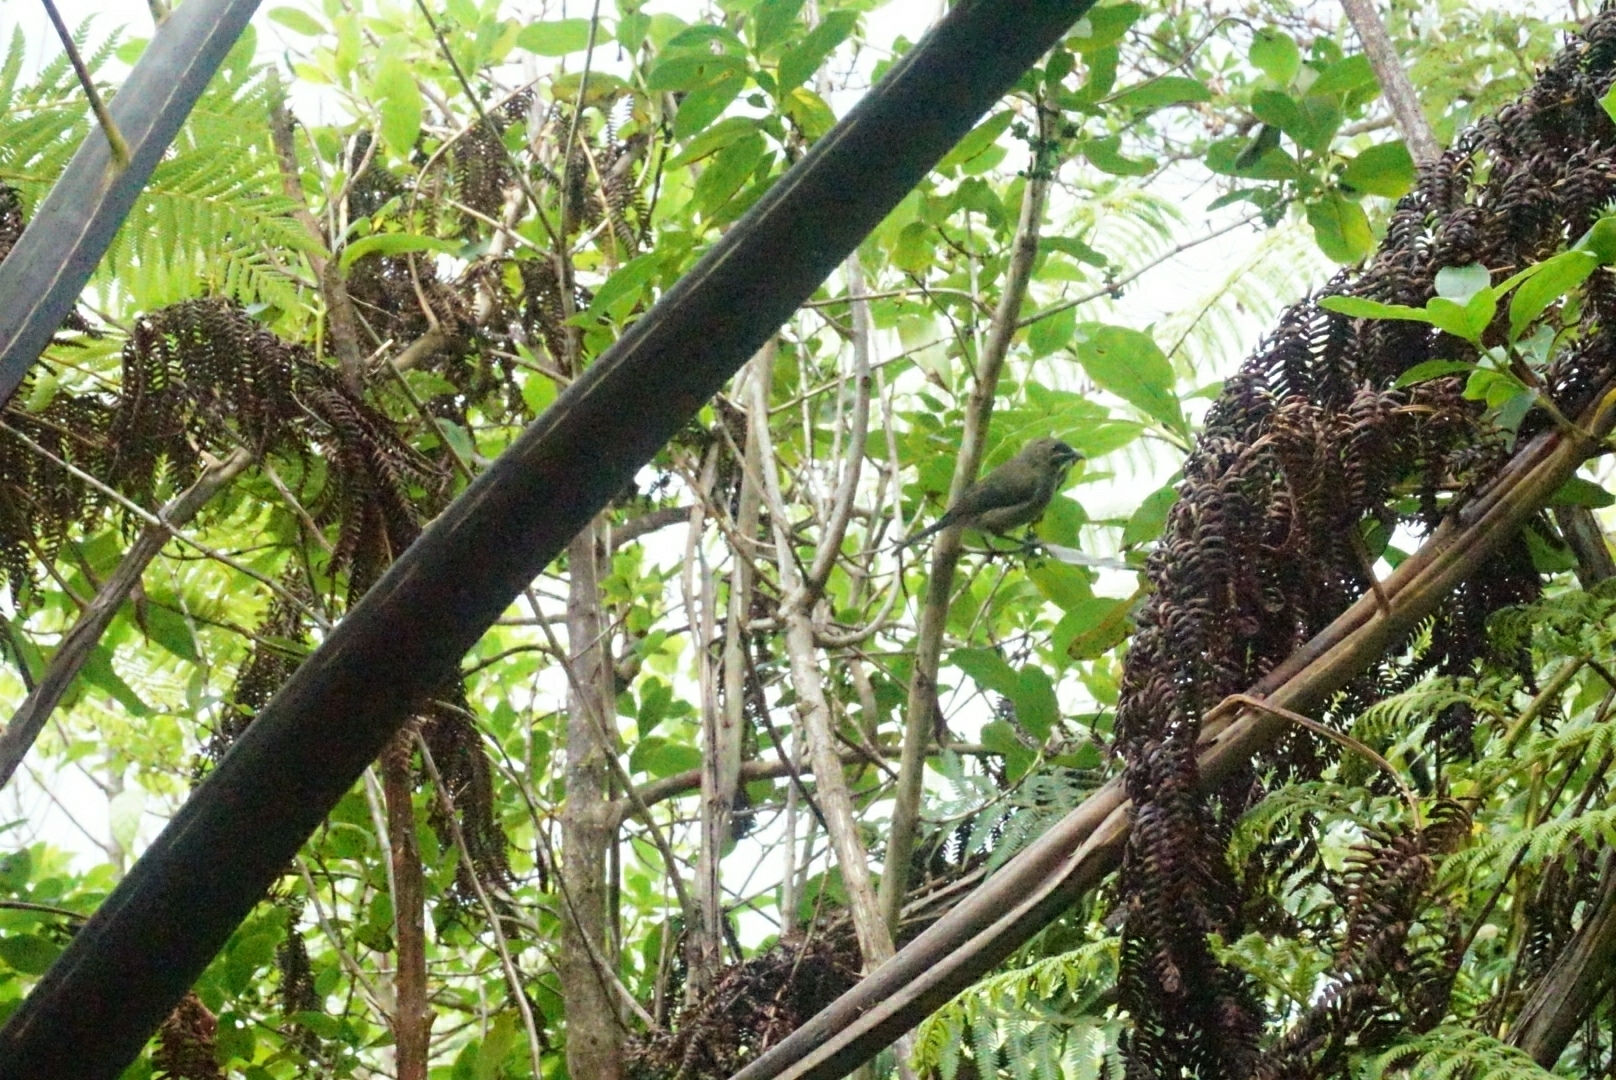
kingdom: Animalia
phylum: Chordata
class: Aves
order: Passeriformes
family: Meliphagidae
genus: Anthornis
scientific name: Anthornis melanura
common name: New zealand bellbird
